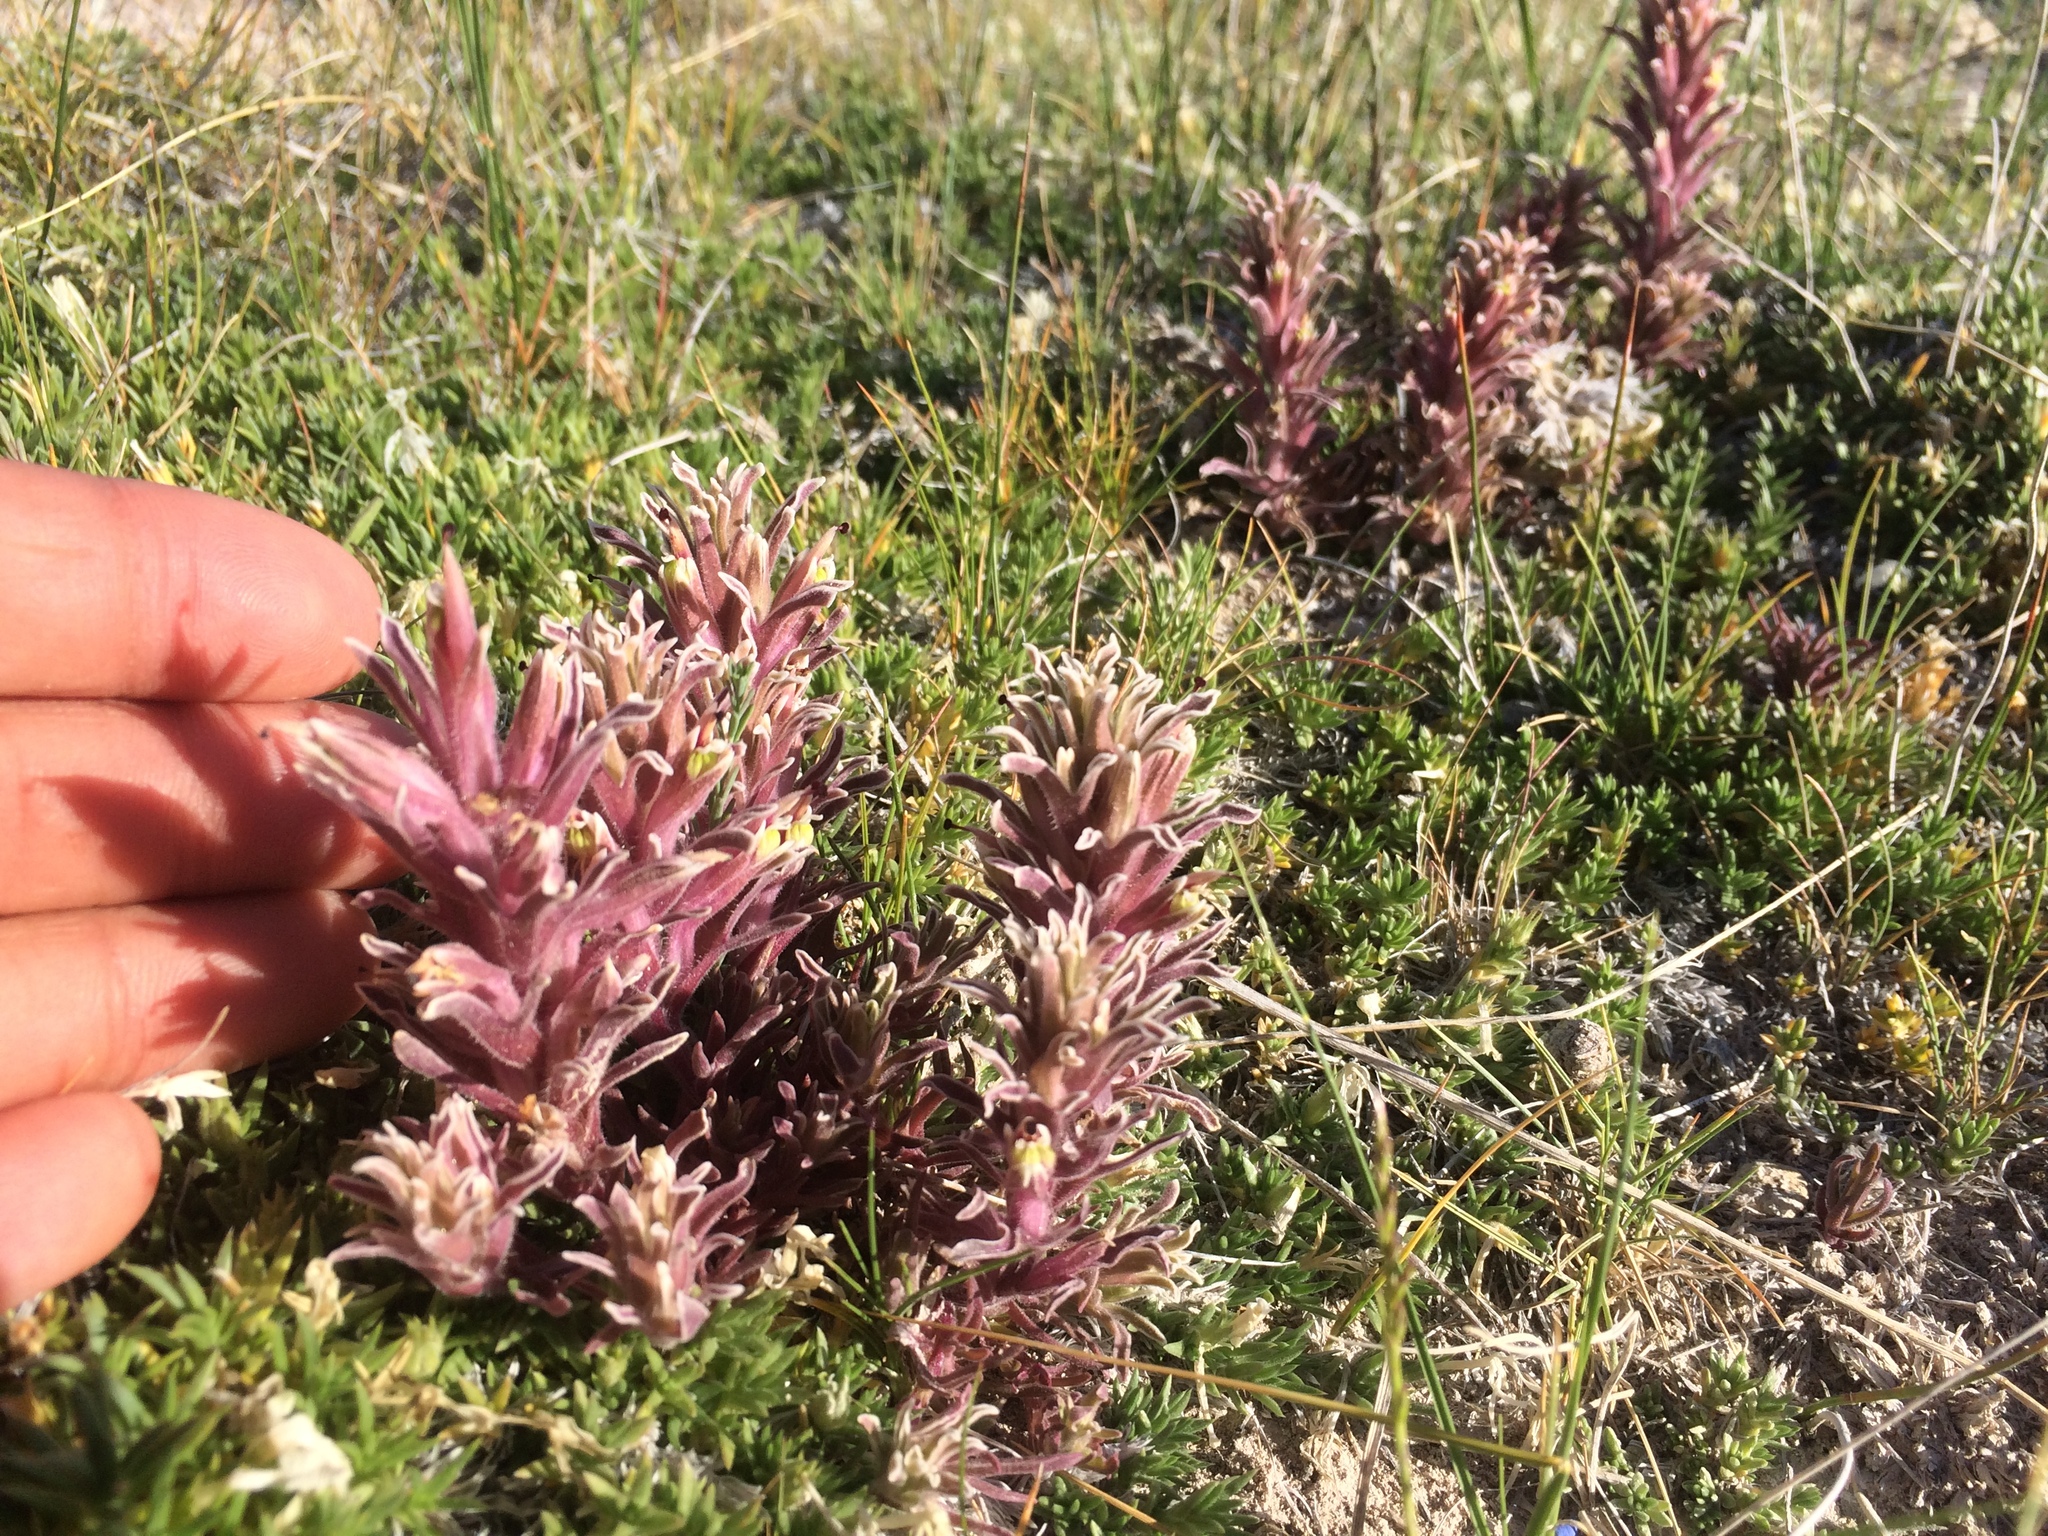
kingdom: Plantae
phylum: Tracheophyta
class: Magnoliopsida
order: Lamiales
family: Orobanchaceae
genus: Castilleja
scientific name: Castilleja salsuginosa
